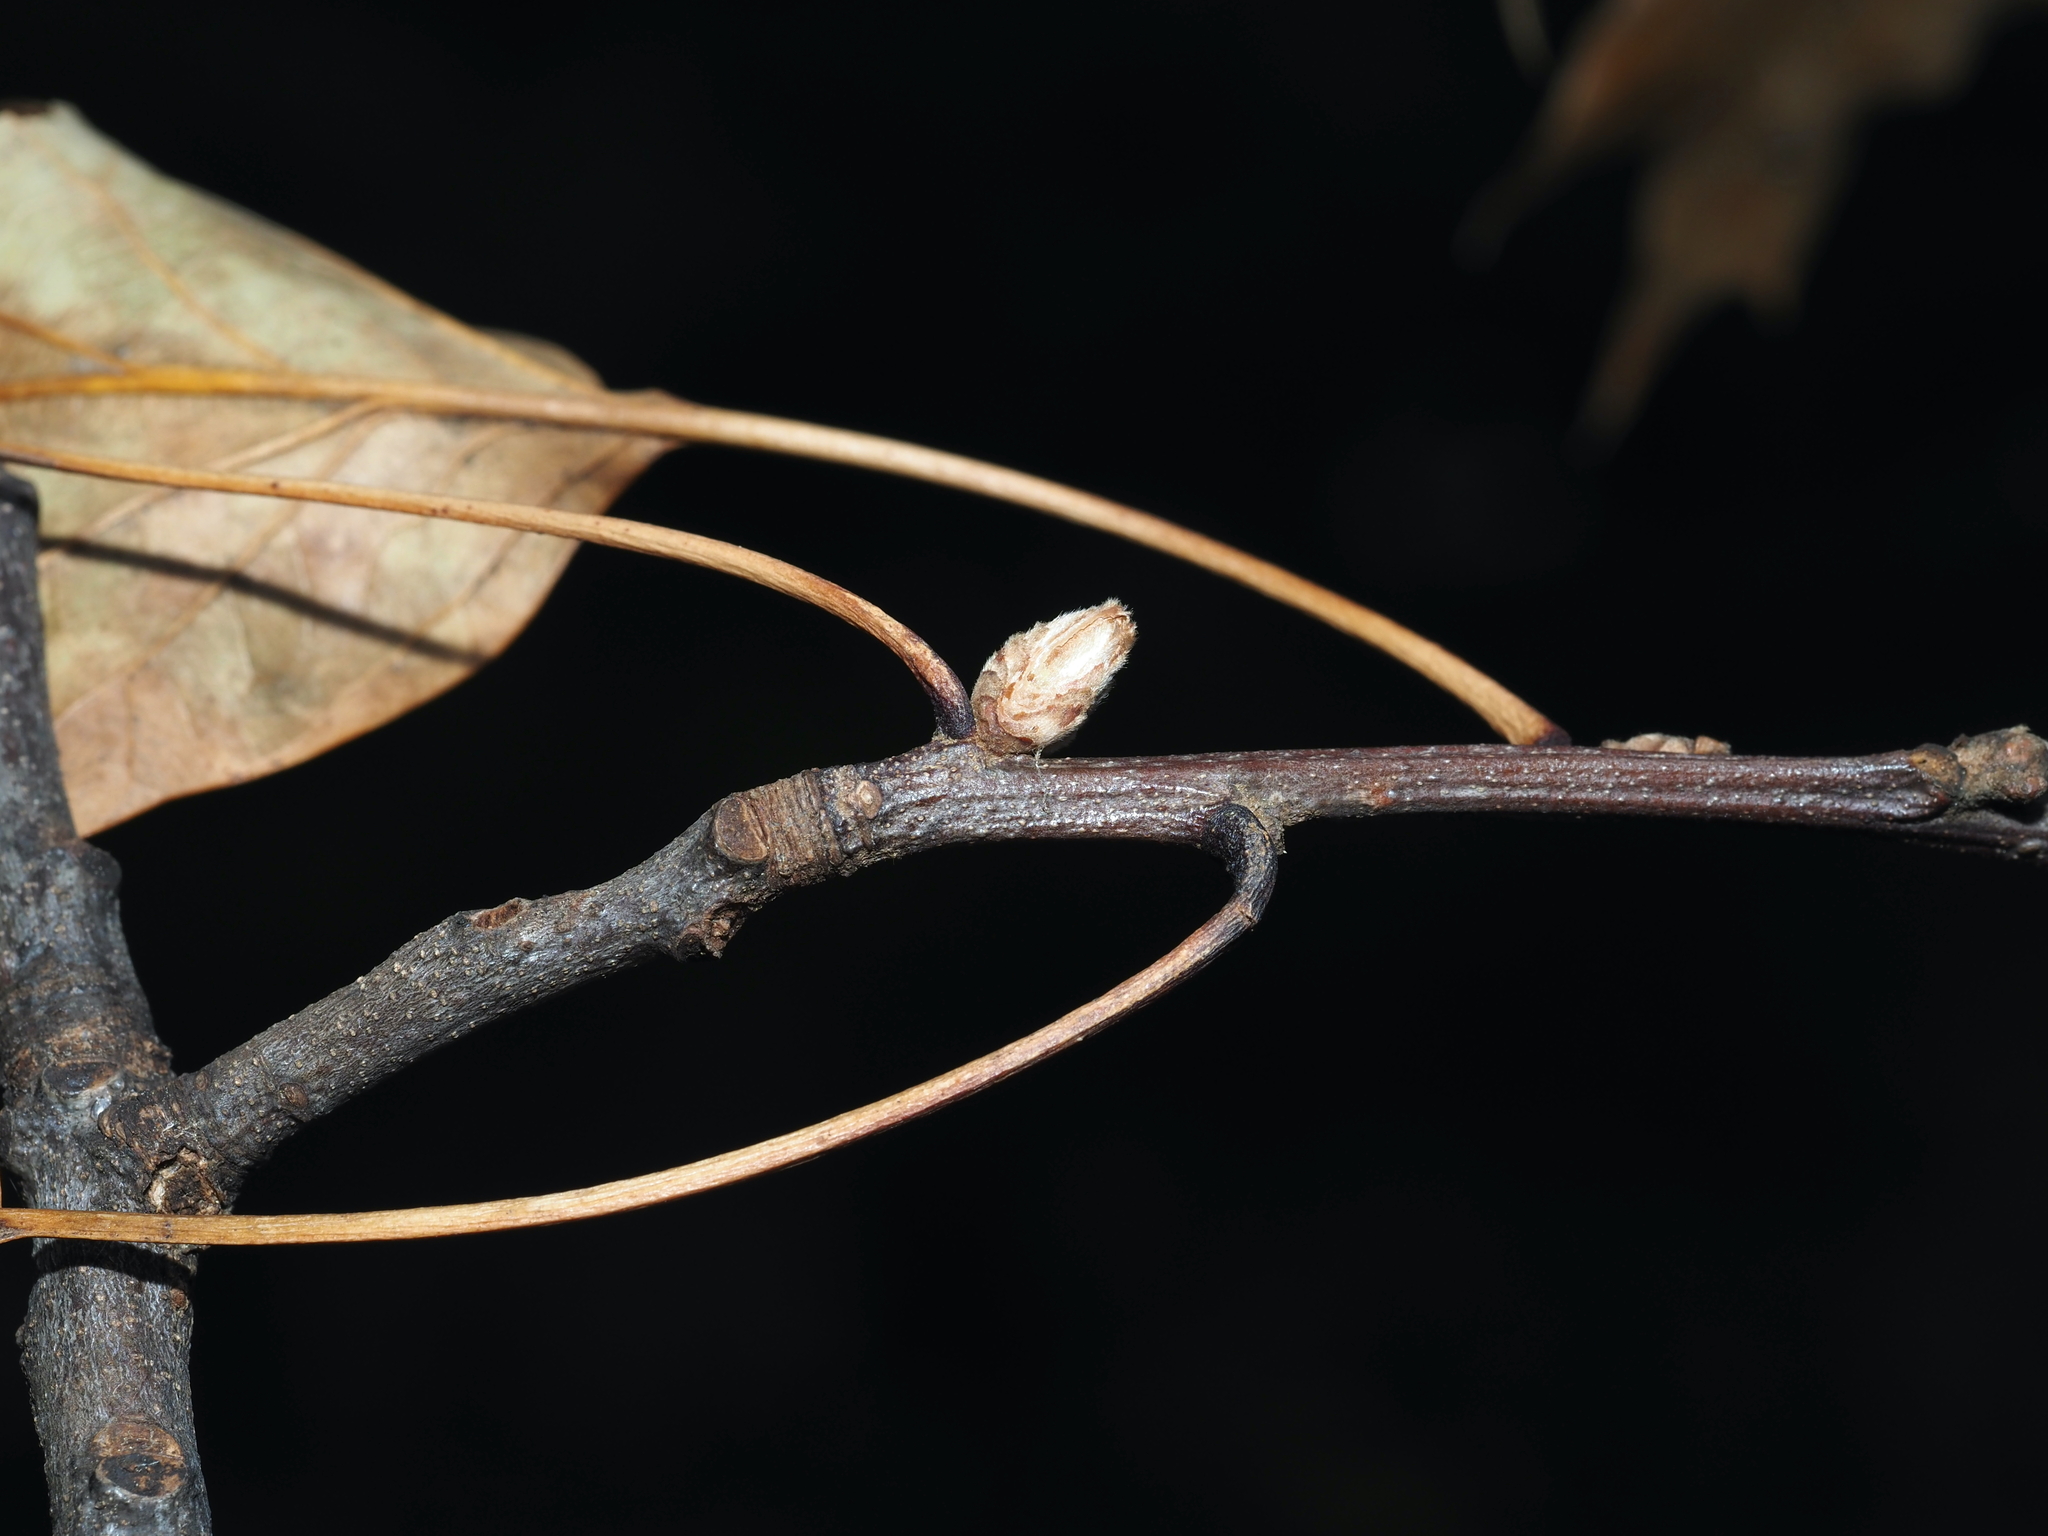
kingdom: Plantae
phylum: Tracheophyta
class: Magnoliopsida
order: Fagales
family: Fagaceae
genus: Quercus
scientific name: Quercus velutina
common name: Black oak
